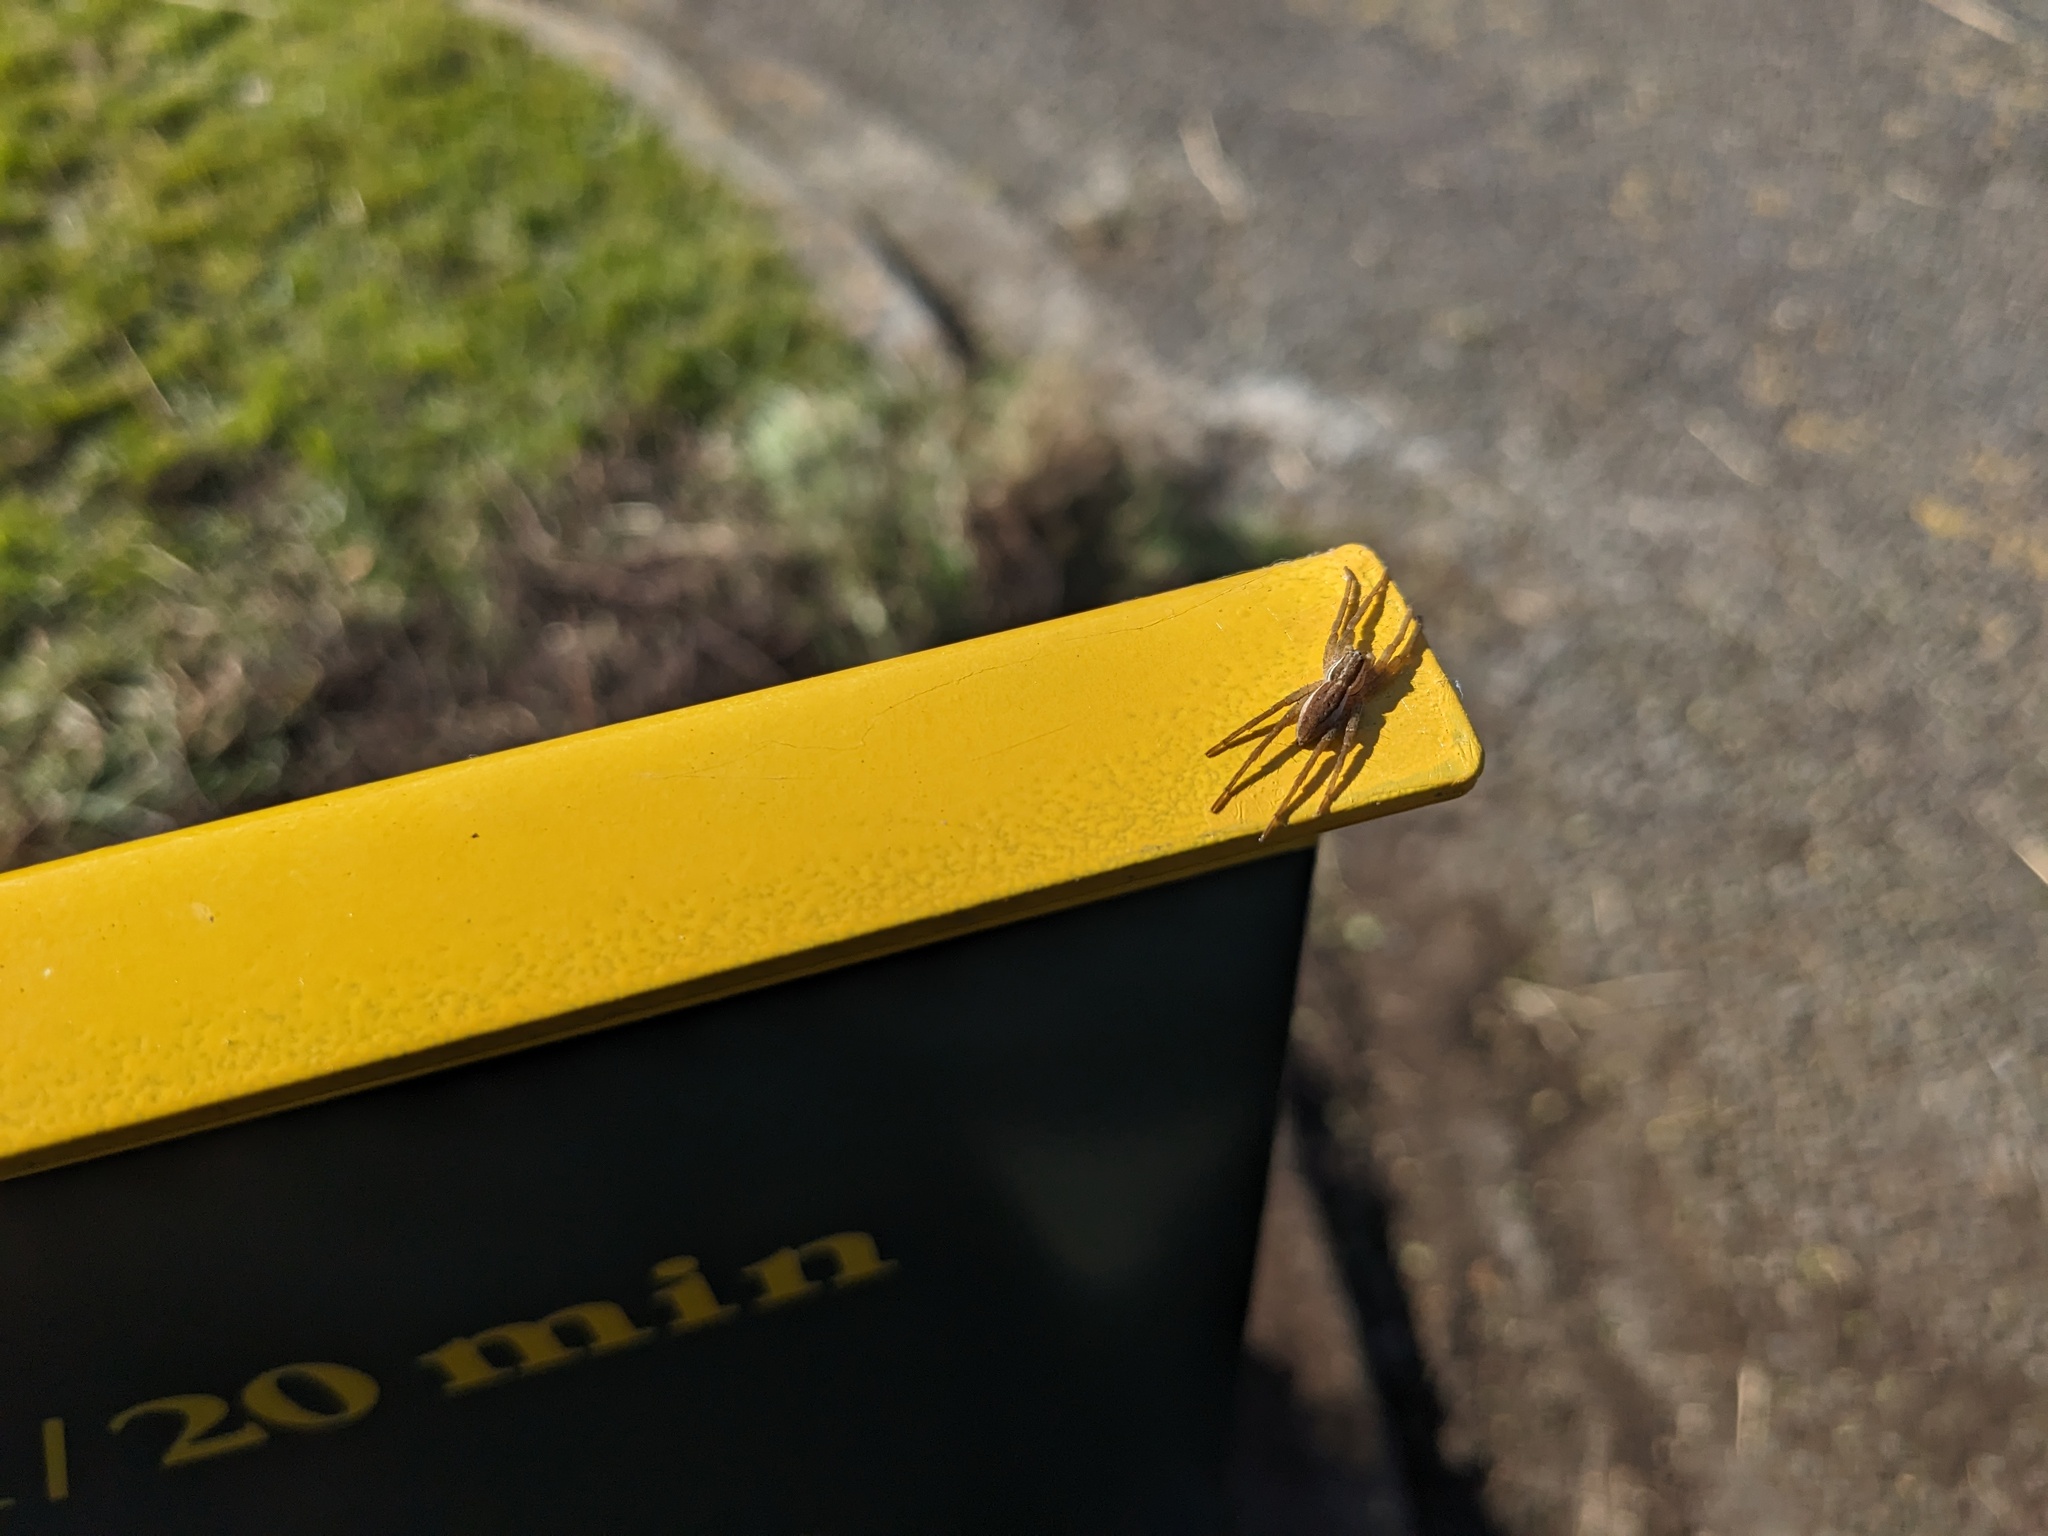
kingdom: Animalia
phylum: Arthropoda
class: Arachnida
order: Araneae
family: Pisauridae
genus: Dolomedes
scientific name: Dolomedes minor
